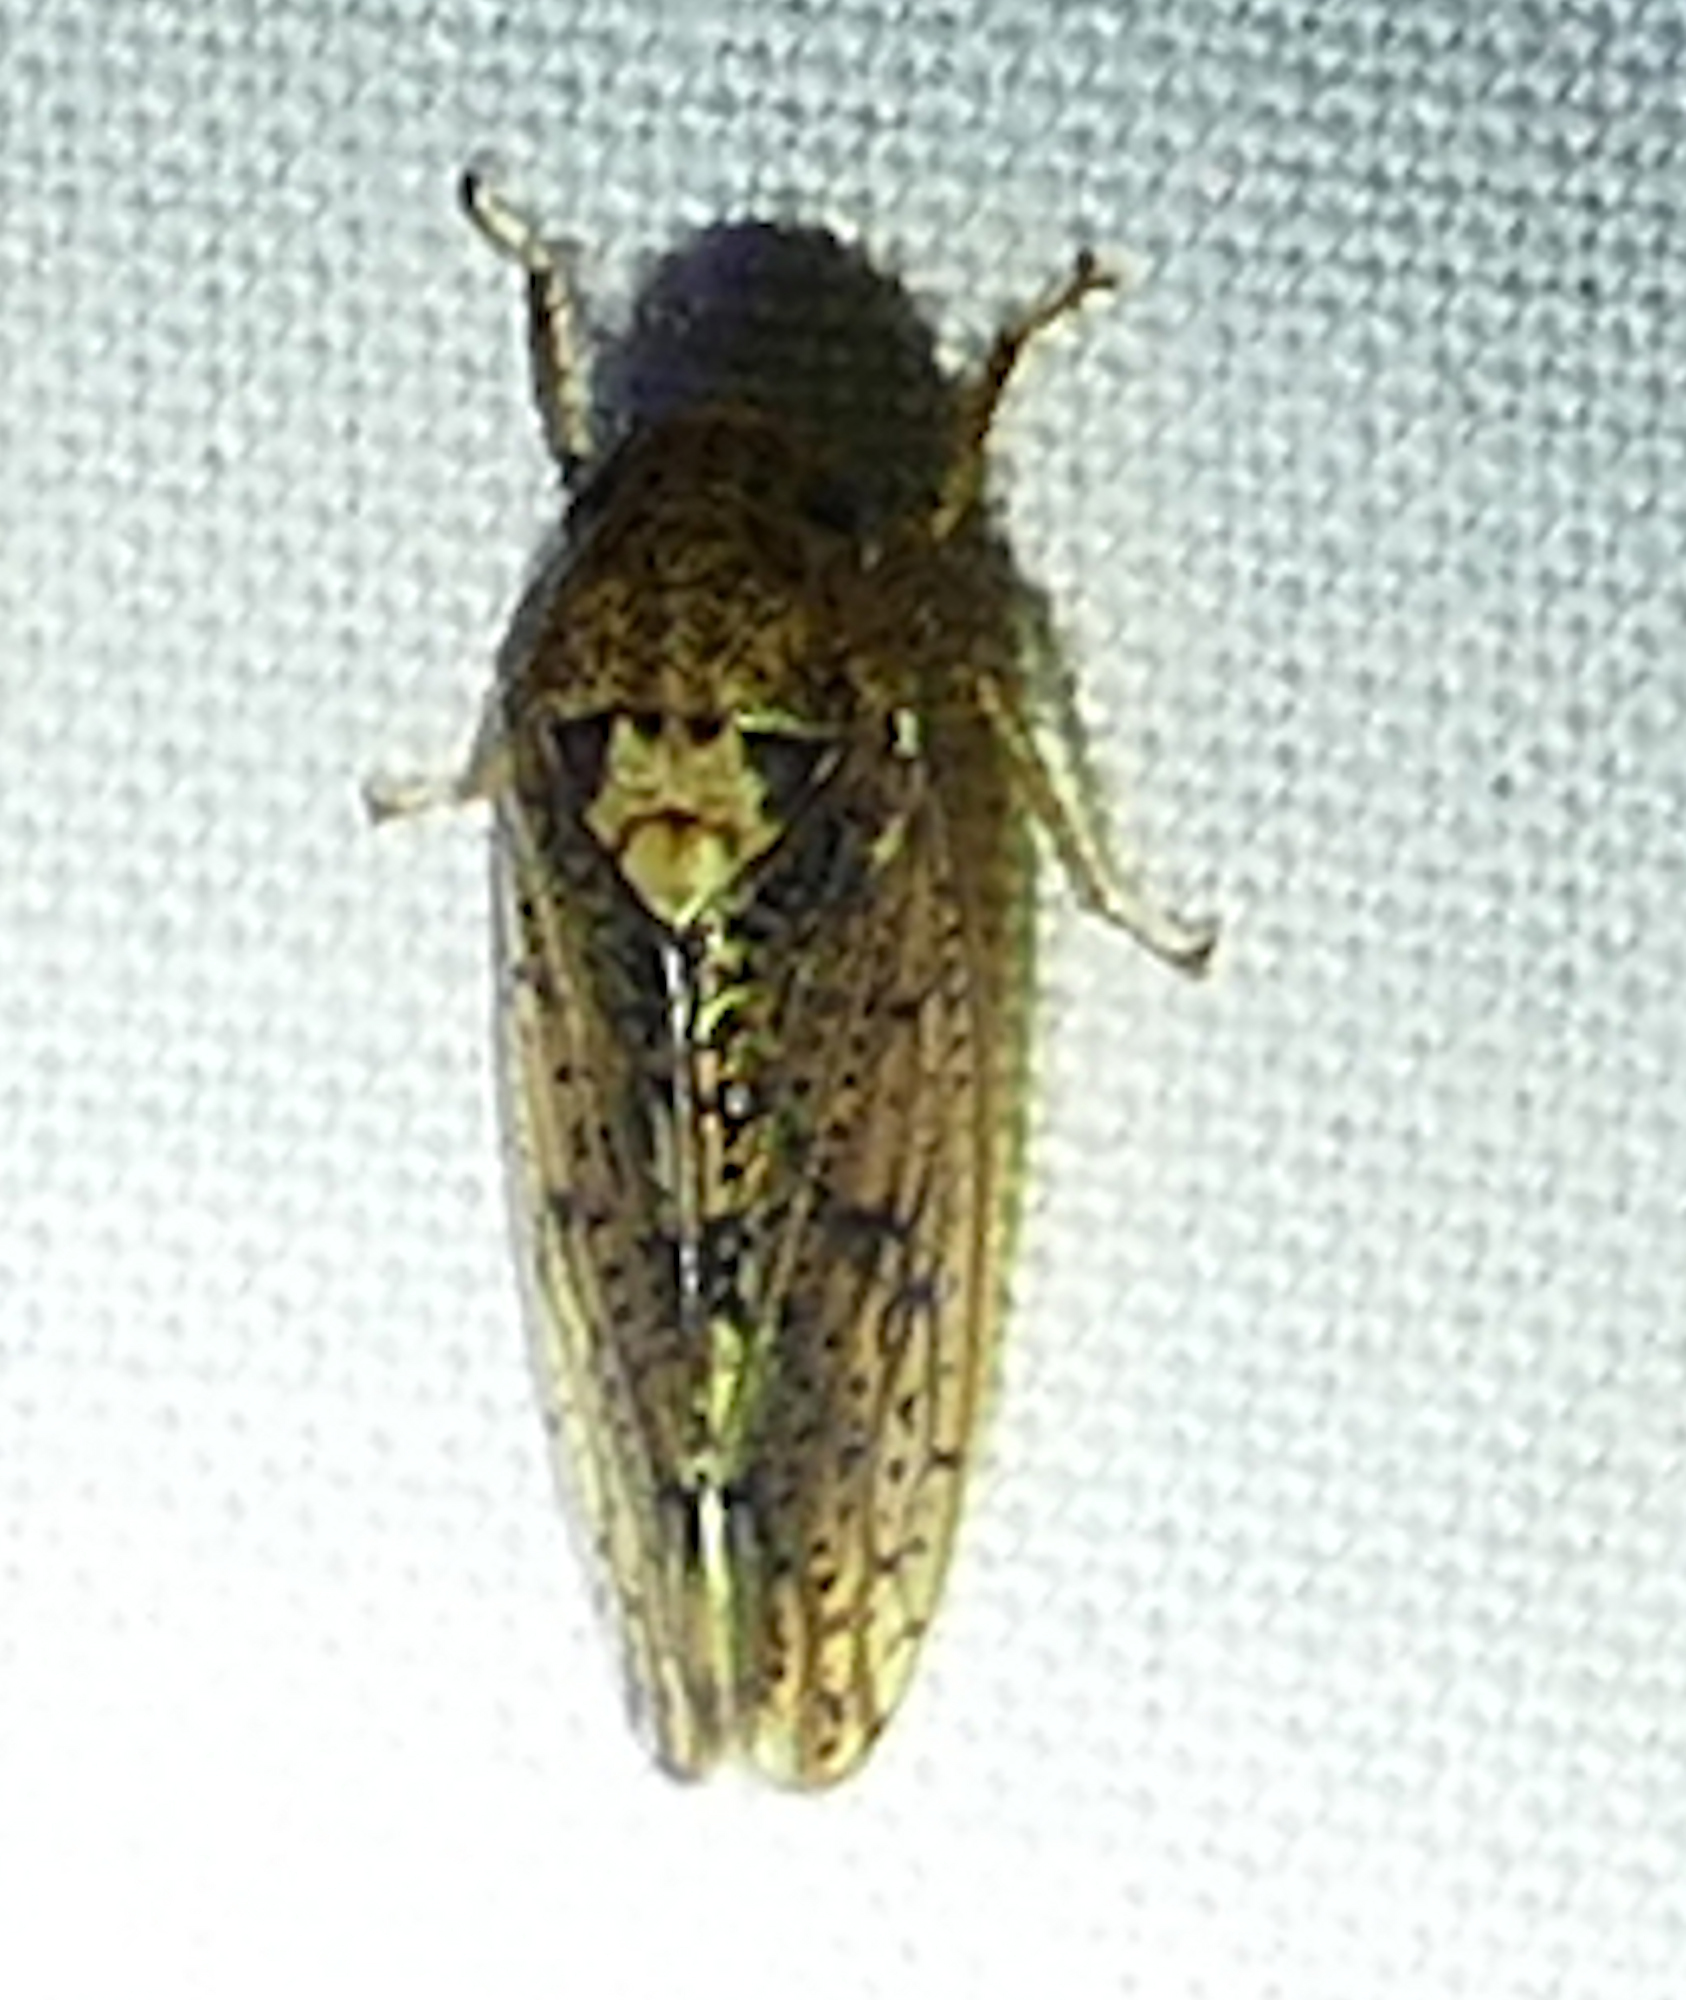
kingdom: Animalia
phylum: Arthropoda
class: Insecta
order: Hemiptera
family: Cicadellidae
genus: Ponana
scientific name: Ponana aquila
